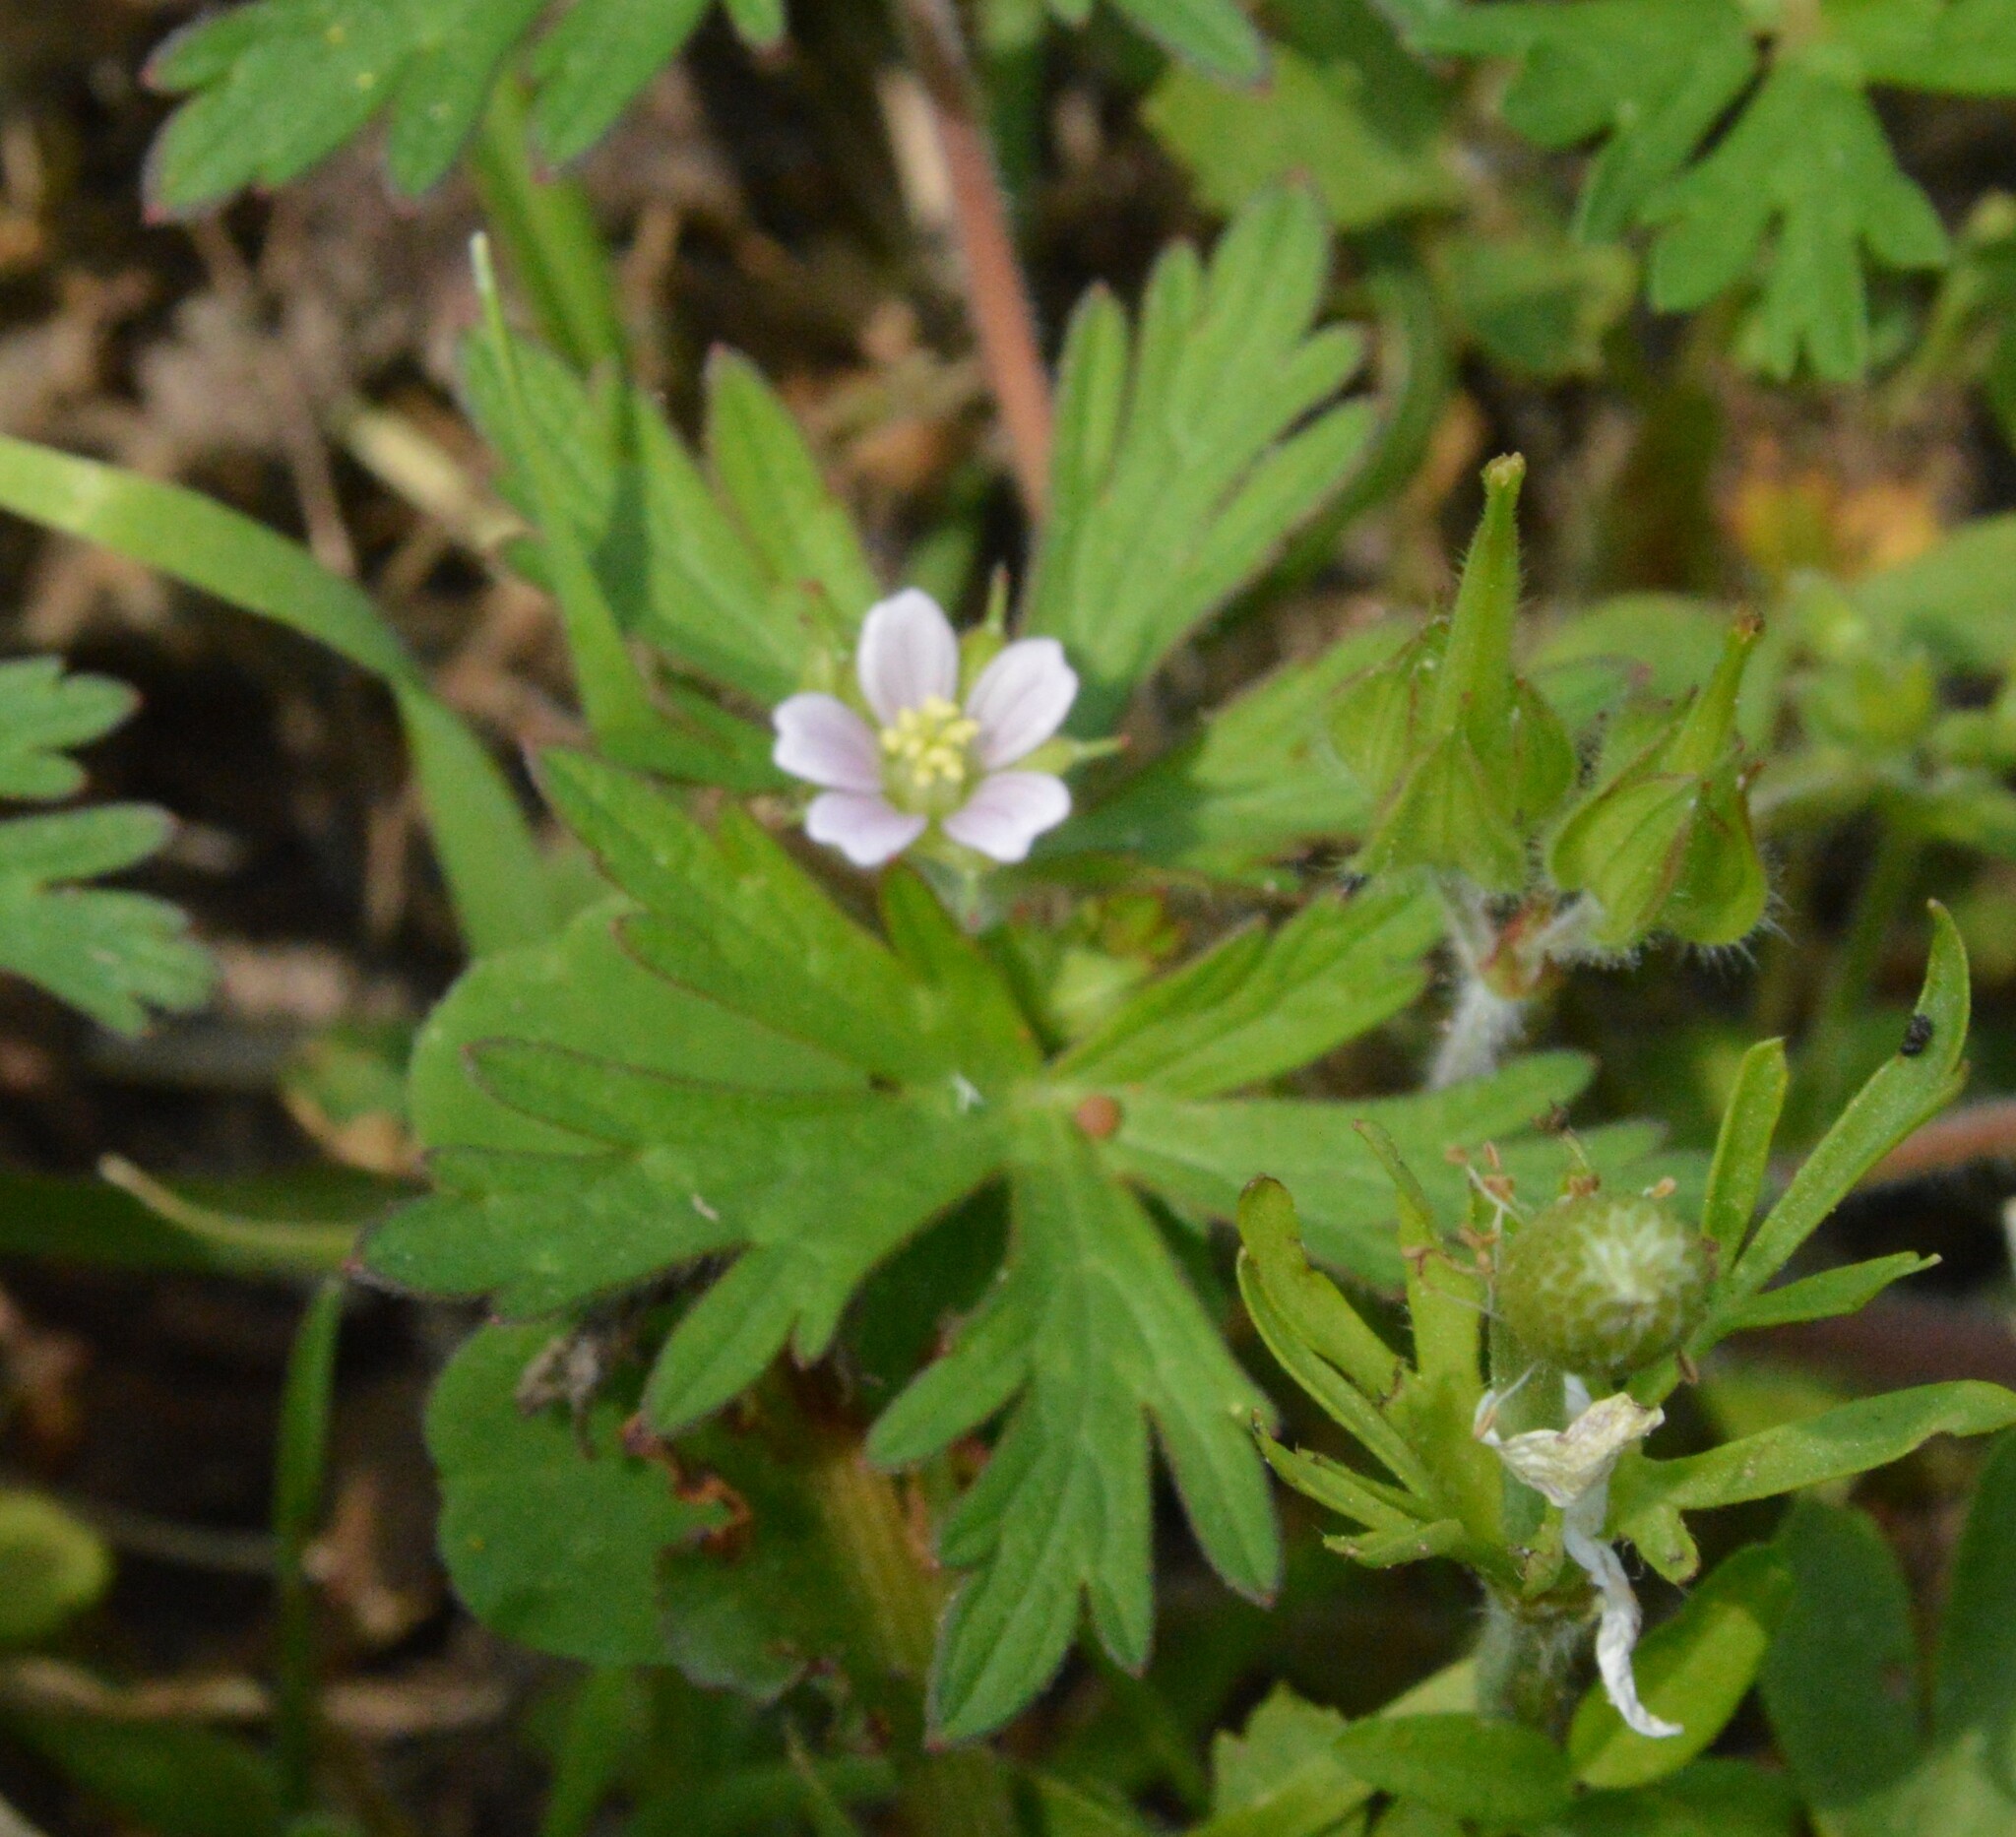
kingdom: Plantae
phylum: Tracheophyta
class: Magnoliopsida
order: Geraniales
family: Geraniaceae
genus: Geranium
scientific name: Geranium carolinianum
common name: Carolina crane's-bill
